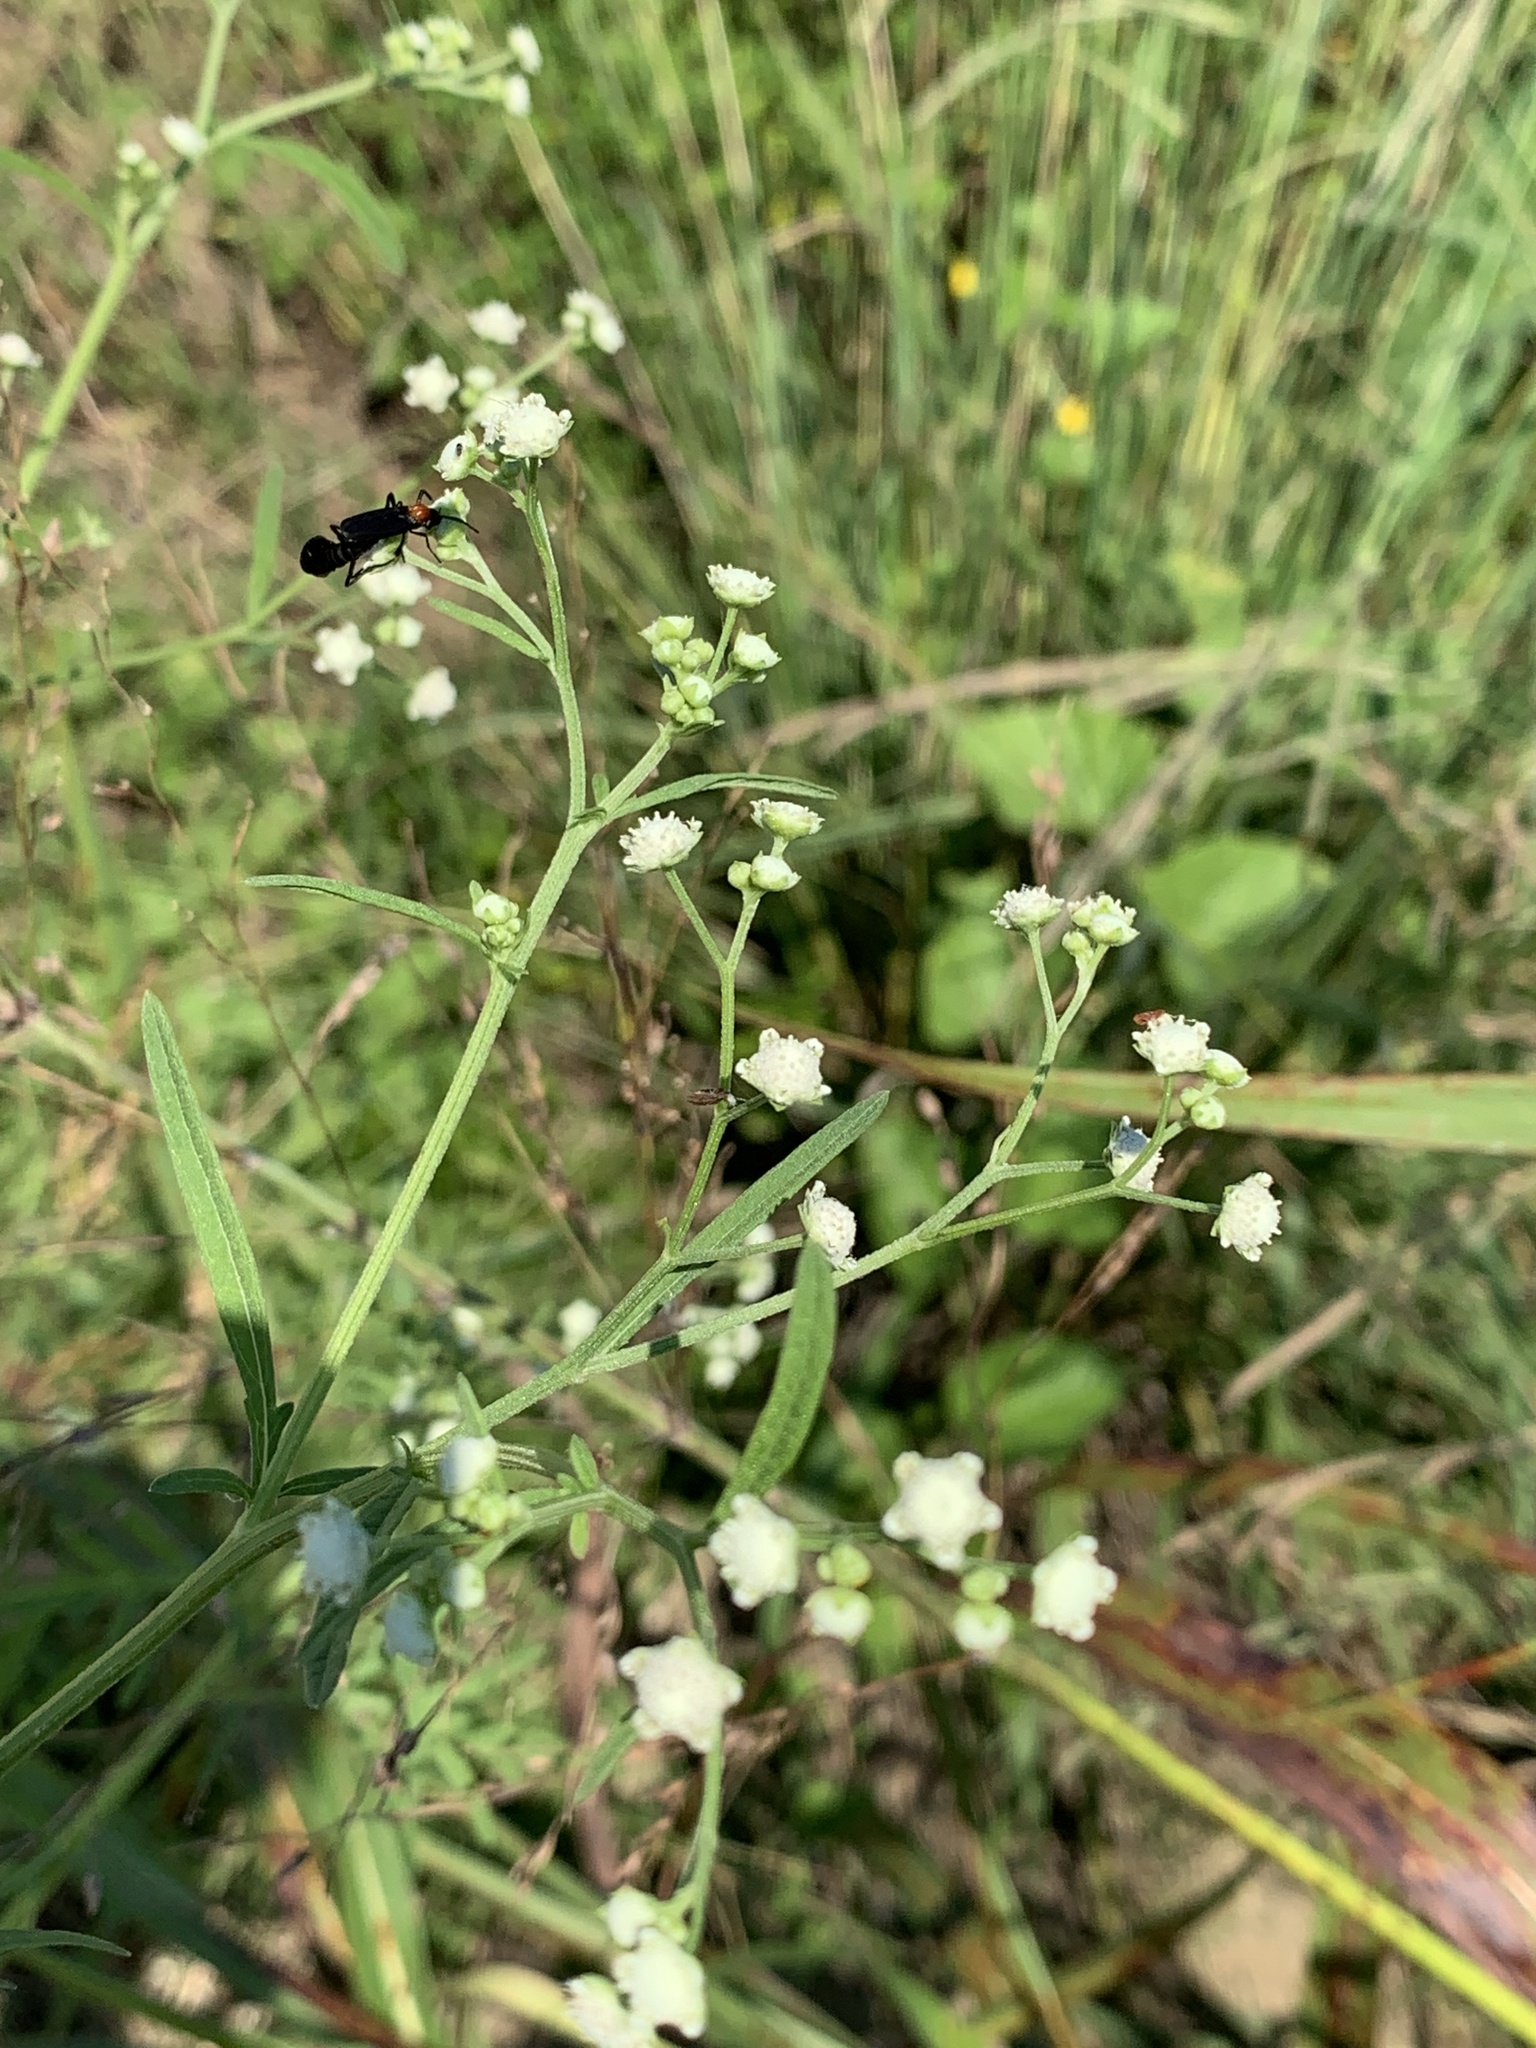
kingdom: Plantae
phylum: Tracheophyta
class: Magnoliopsida
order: Asterales
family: Asteraceae
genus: Parthenium
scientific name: Parthenium hysterophorus
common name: Santa maria feverfew
